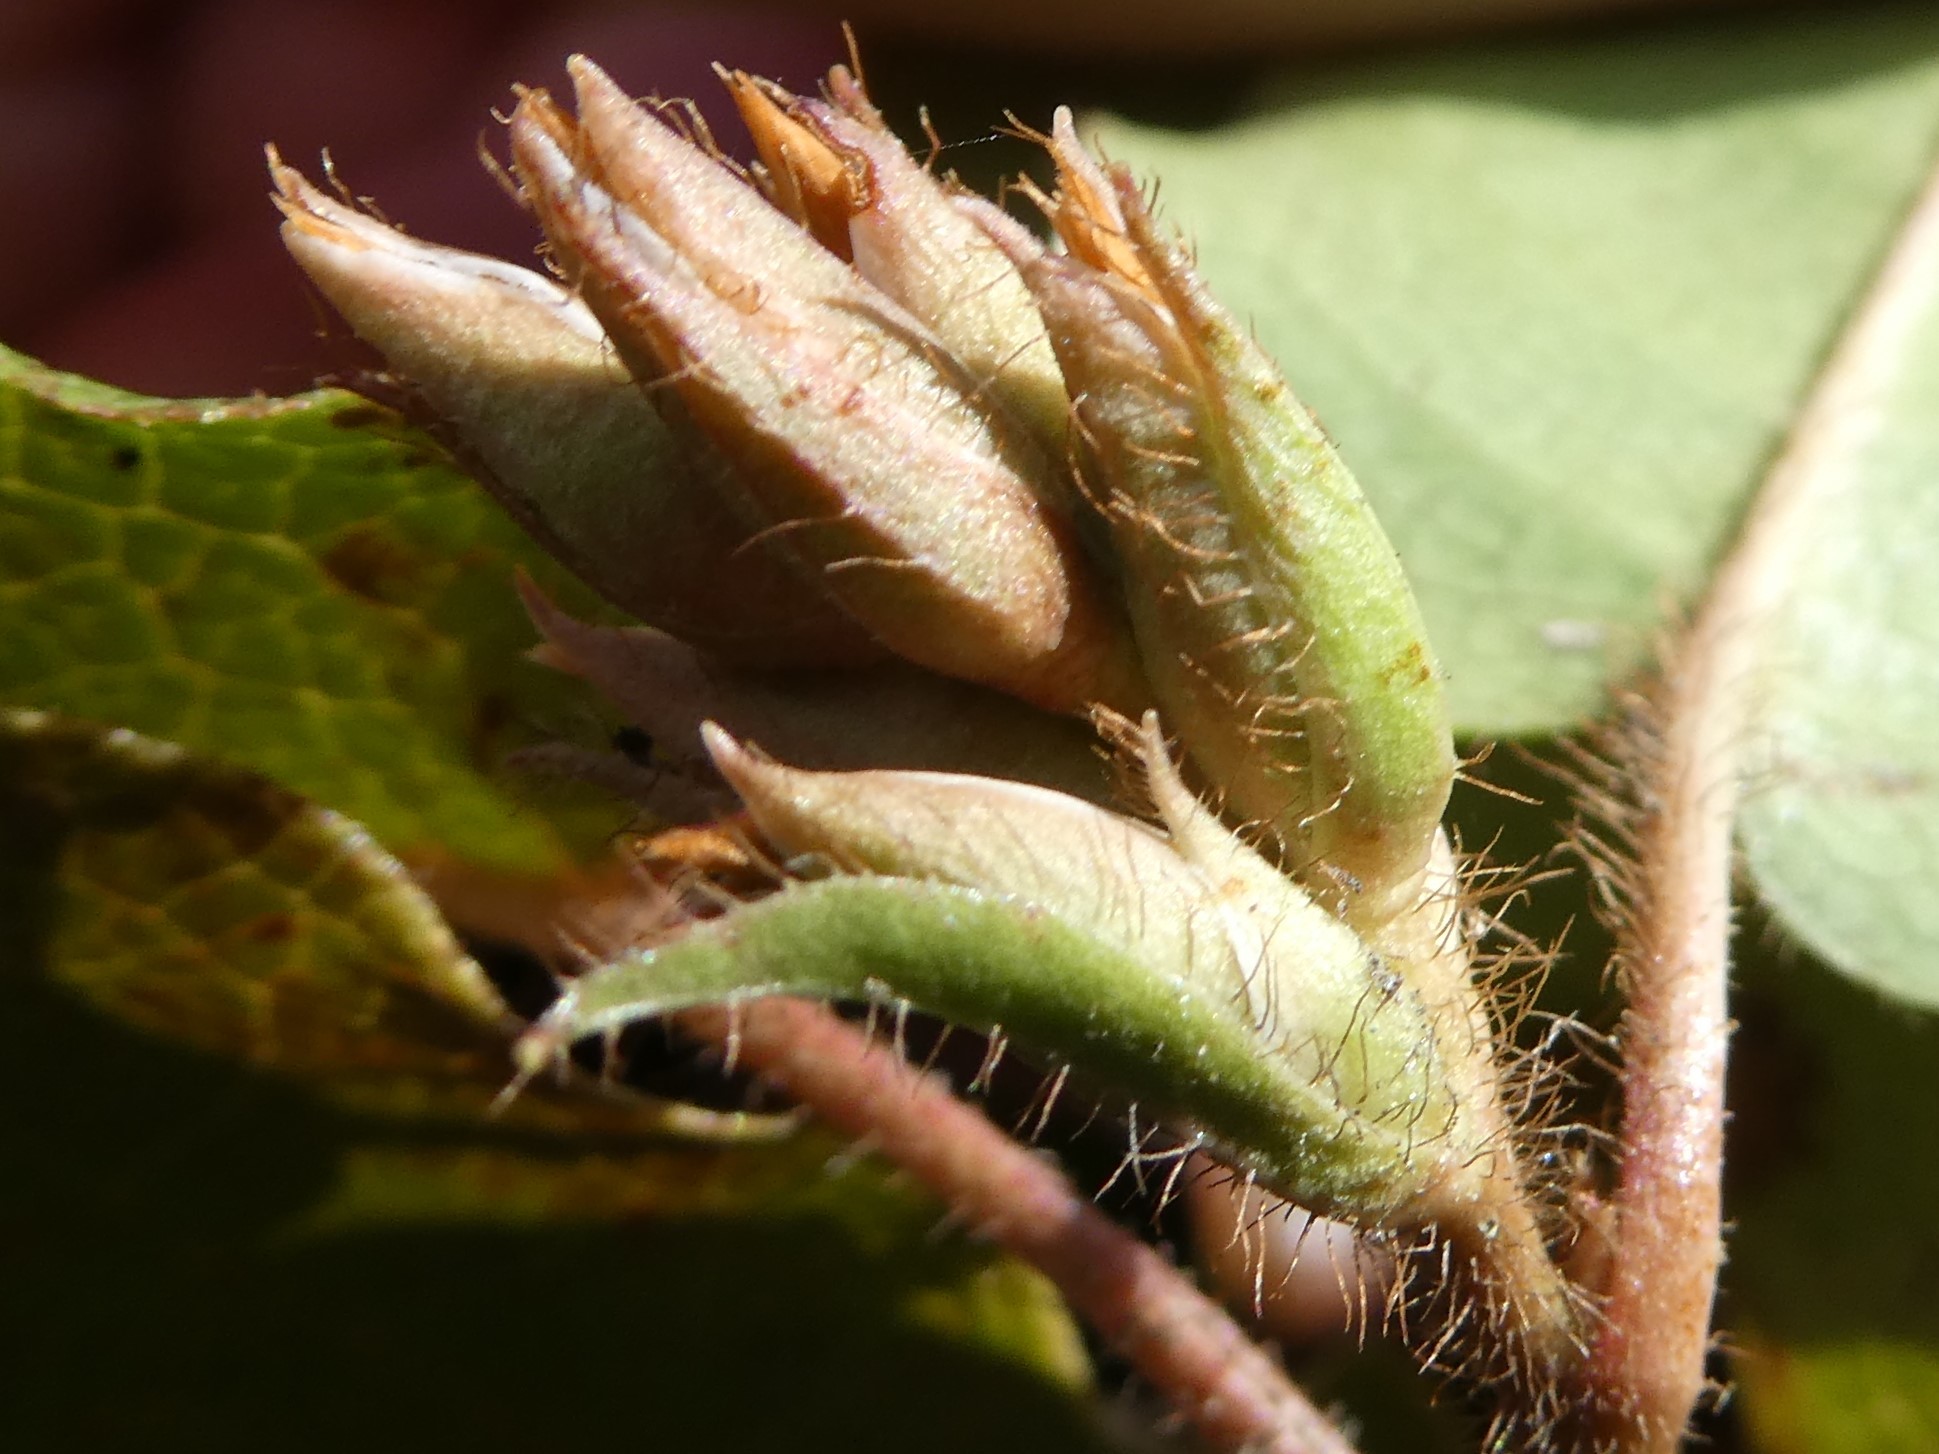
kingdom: Plantae
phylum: Tracheophyta
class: Magnoliopsida
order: Ericales
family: Ericaceae
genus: Epigaea
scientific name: Epigaea repens
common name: Gravelroot
